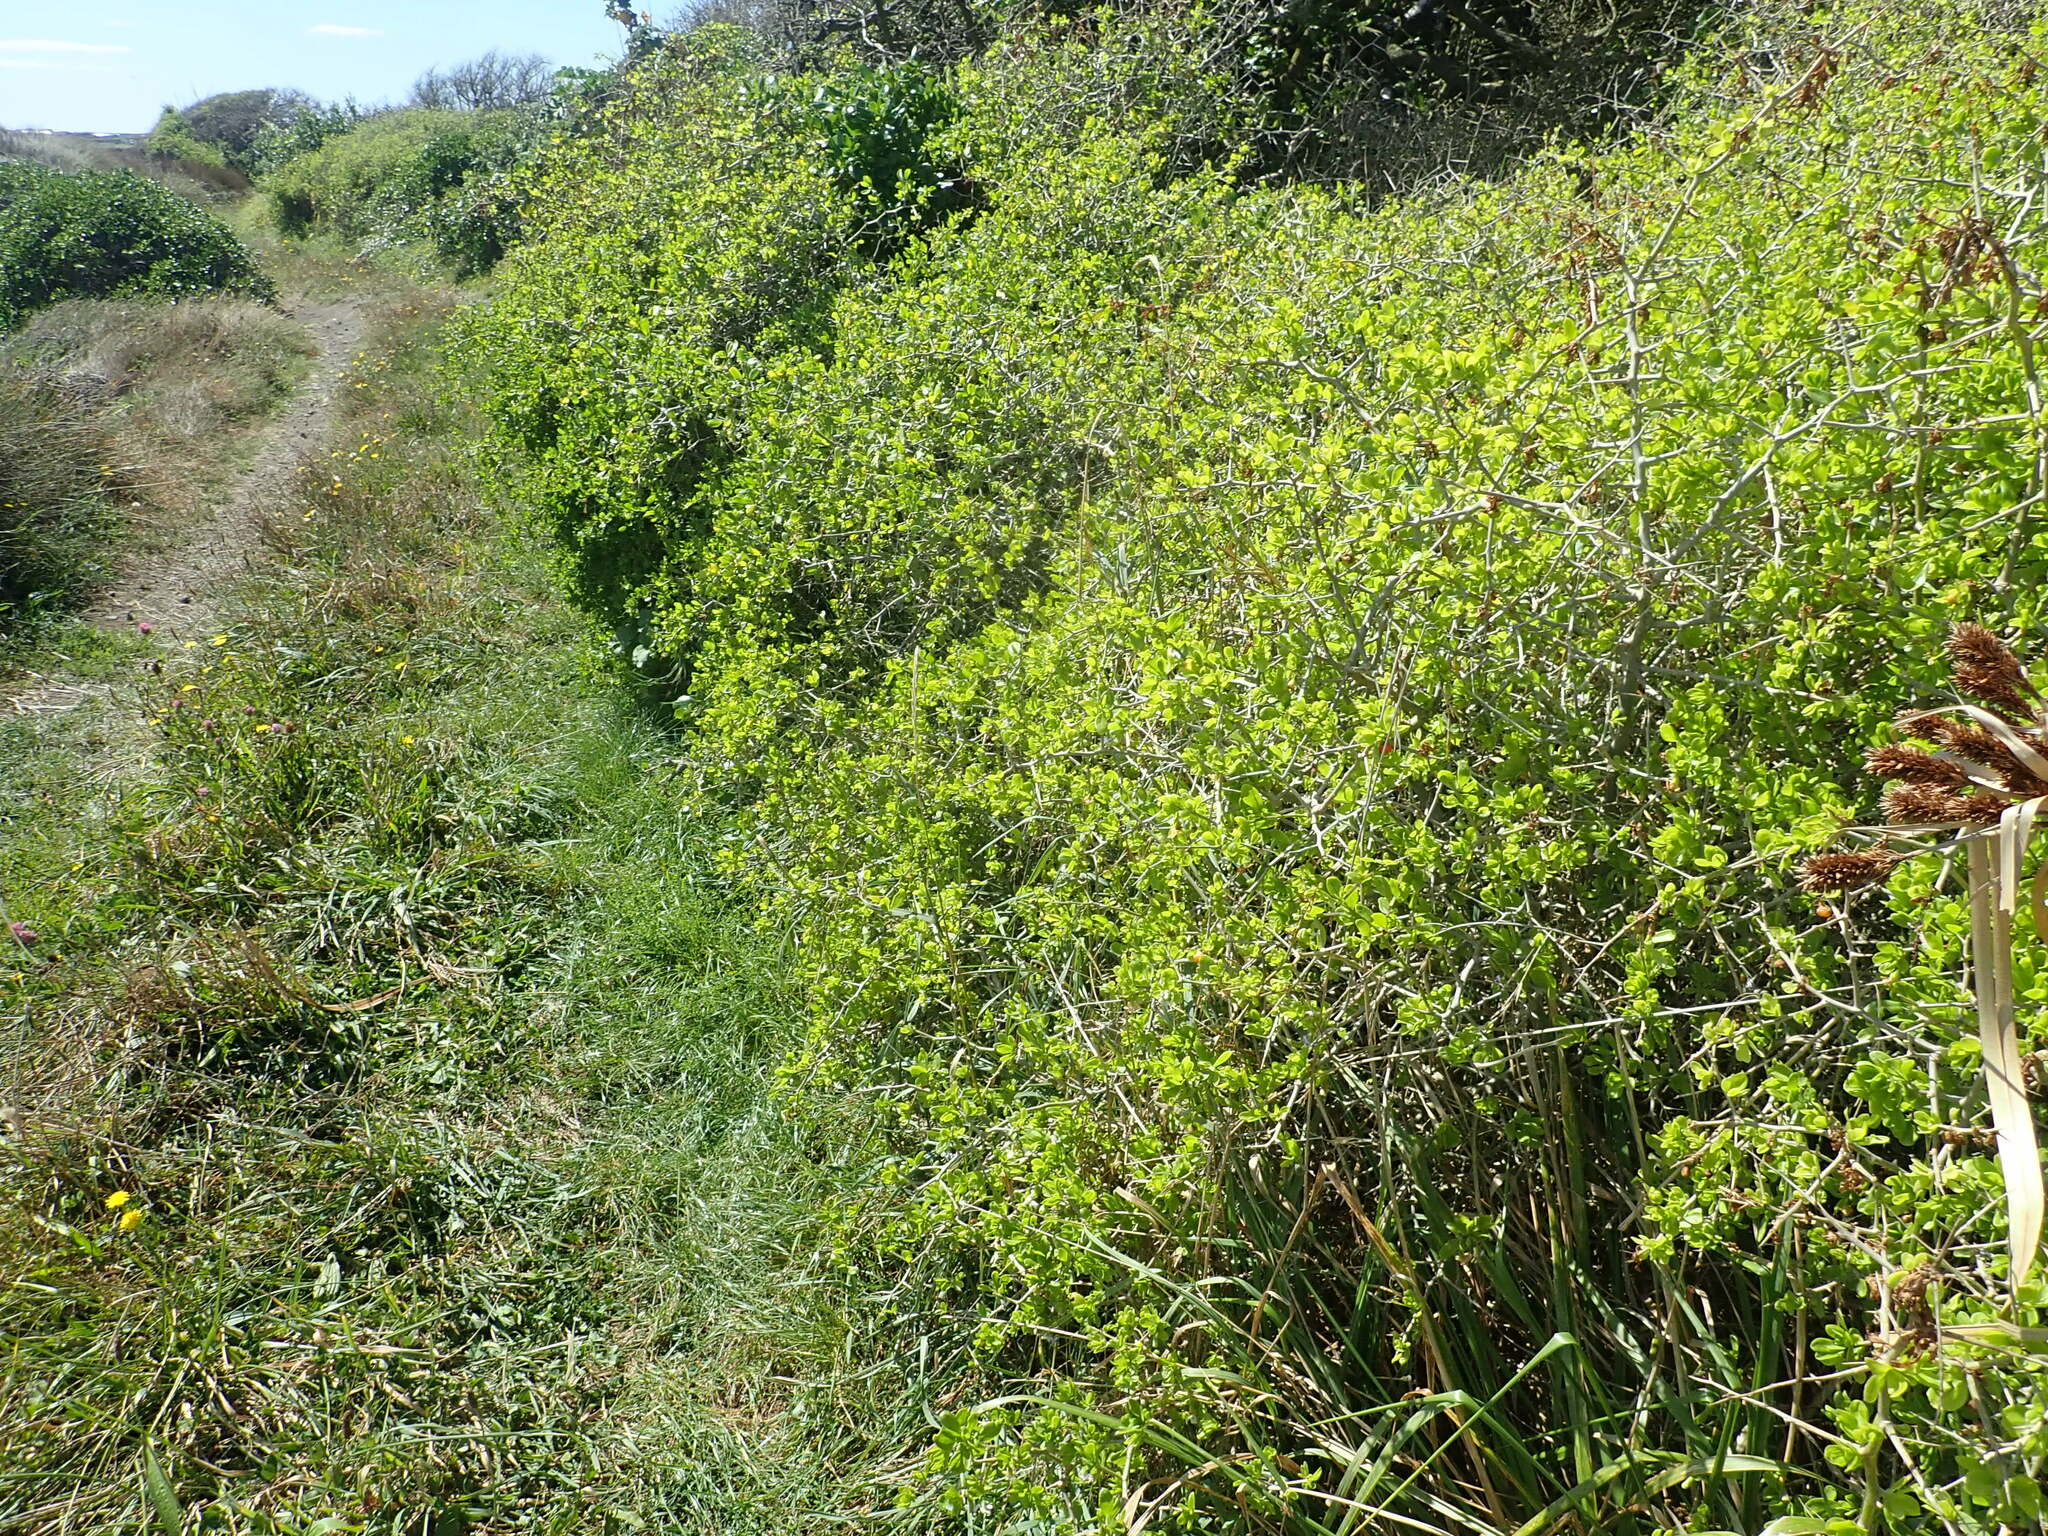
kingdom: Animalia
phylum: Arthropoda
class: Insecta
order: Lepidoptera
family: Lycaenidae
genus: Lycaena
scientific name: Lycaena salustius
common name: North island coastal copper
